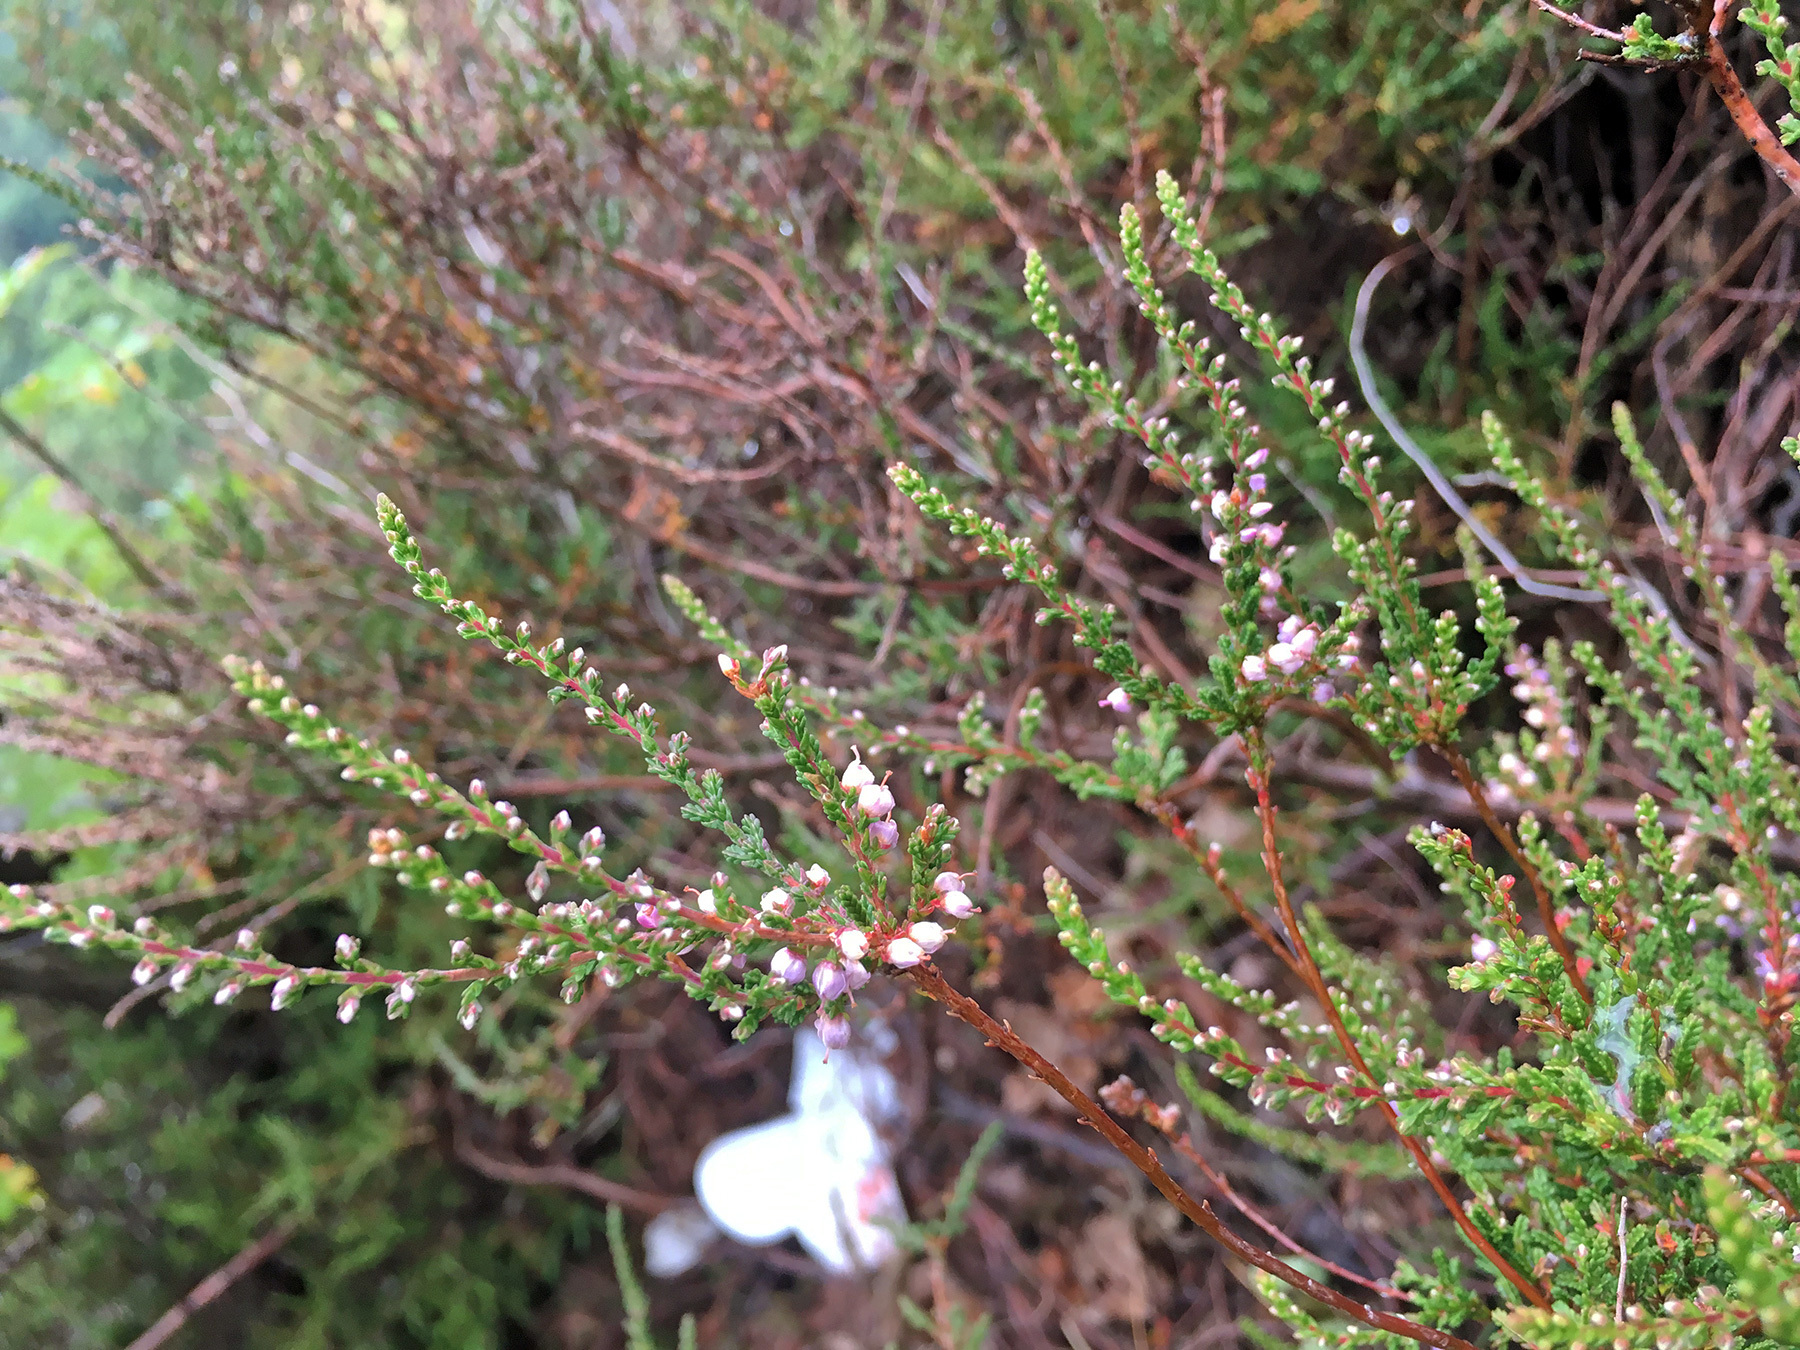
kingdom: Plantae
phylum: Tracheophyta
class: Magnoliopsida
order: Ericales
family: Ericaceae
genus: Calluna
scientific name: Calluna vulgaris
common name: Heather
